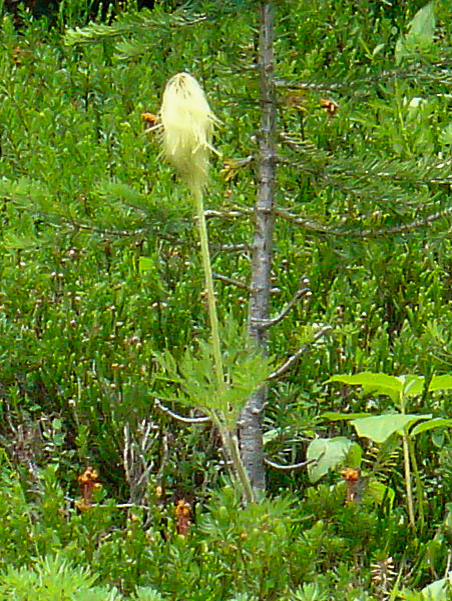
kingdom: Plantae
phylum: Tracheophyta
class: Magnoliopsida
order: Ranunculales
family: Ranunculaceae
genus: Pulsatilla
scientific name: Pulsatilla occidentalis
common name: Mountain pasqueflower
